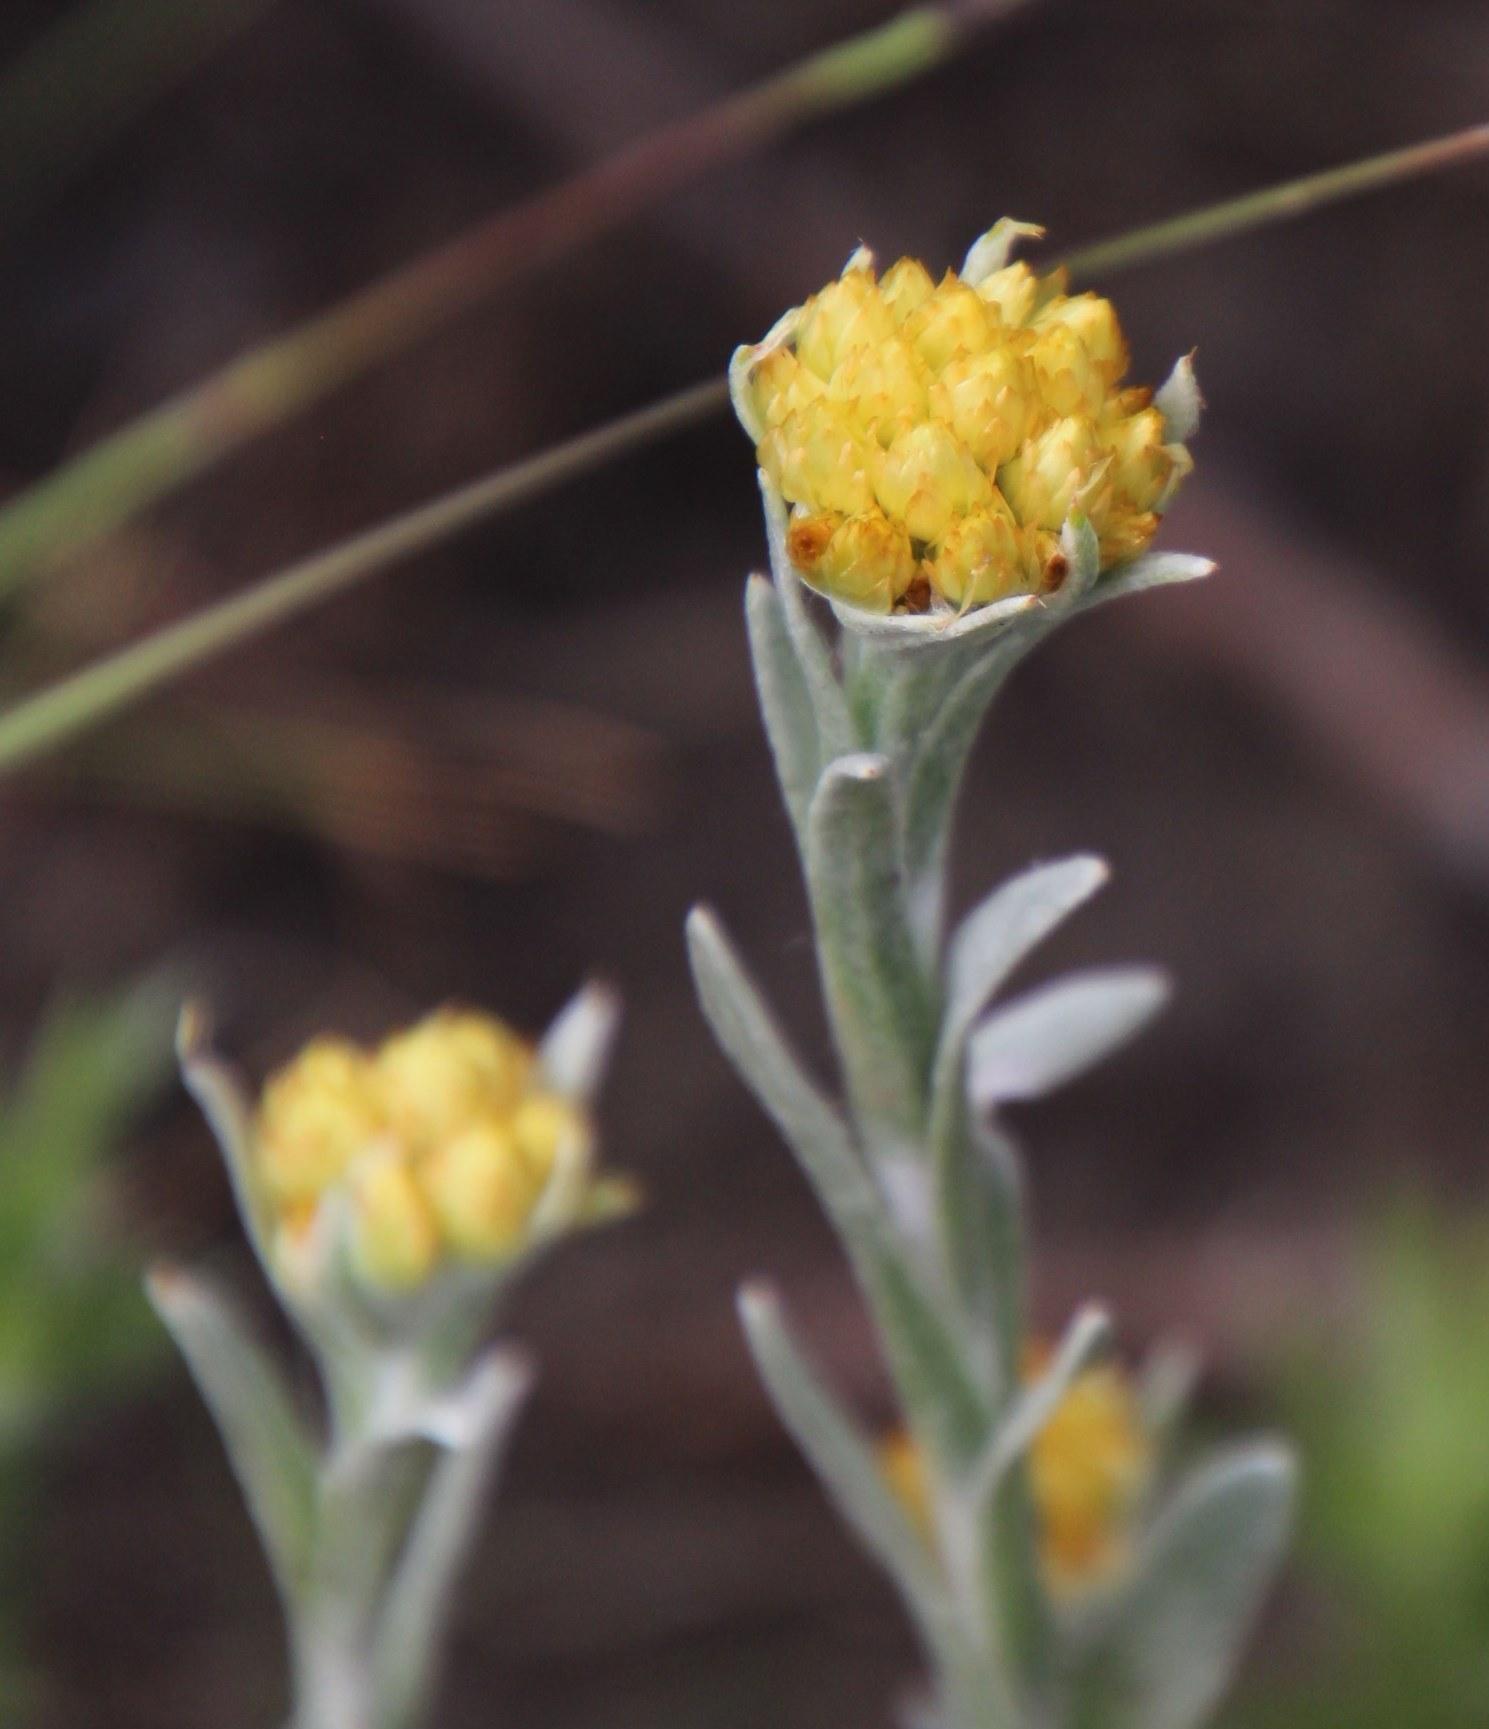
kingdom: Plantae
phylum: Tracheophyta
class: Magnoliopsida
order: Asterales
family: Asteraceae
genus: Helichrysum
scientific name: Helichrysum cephaloideum
